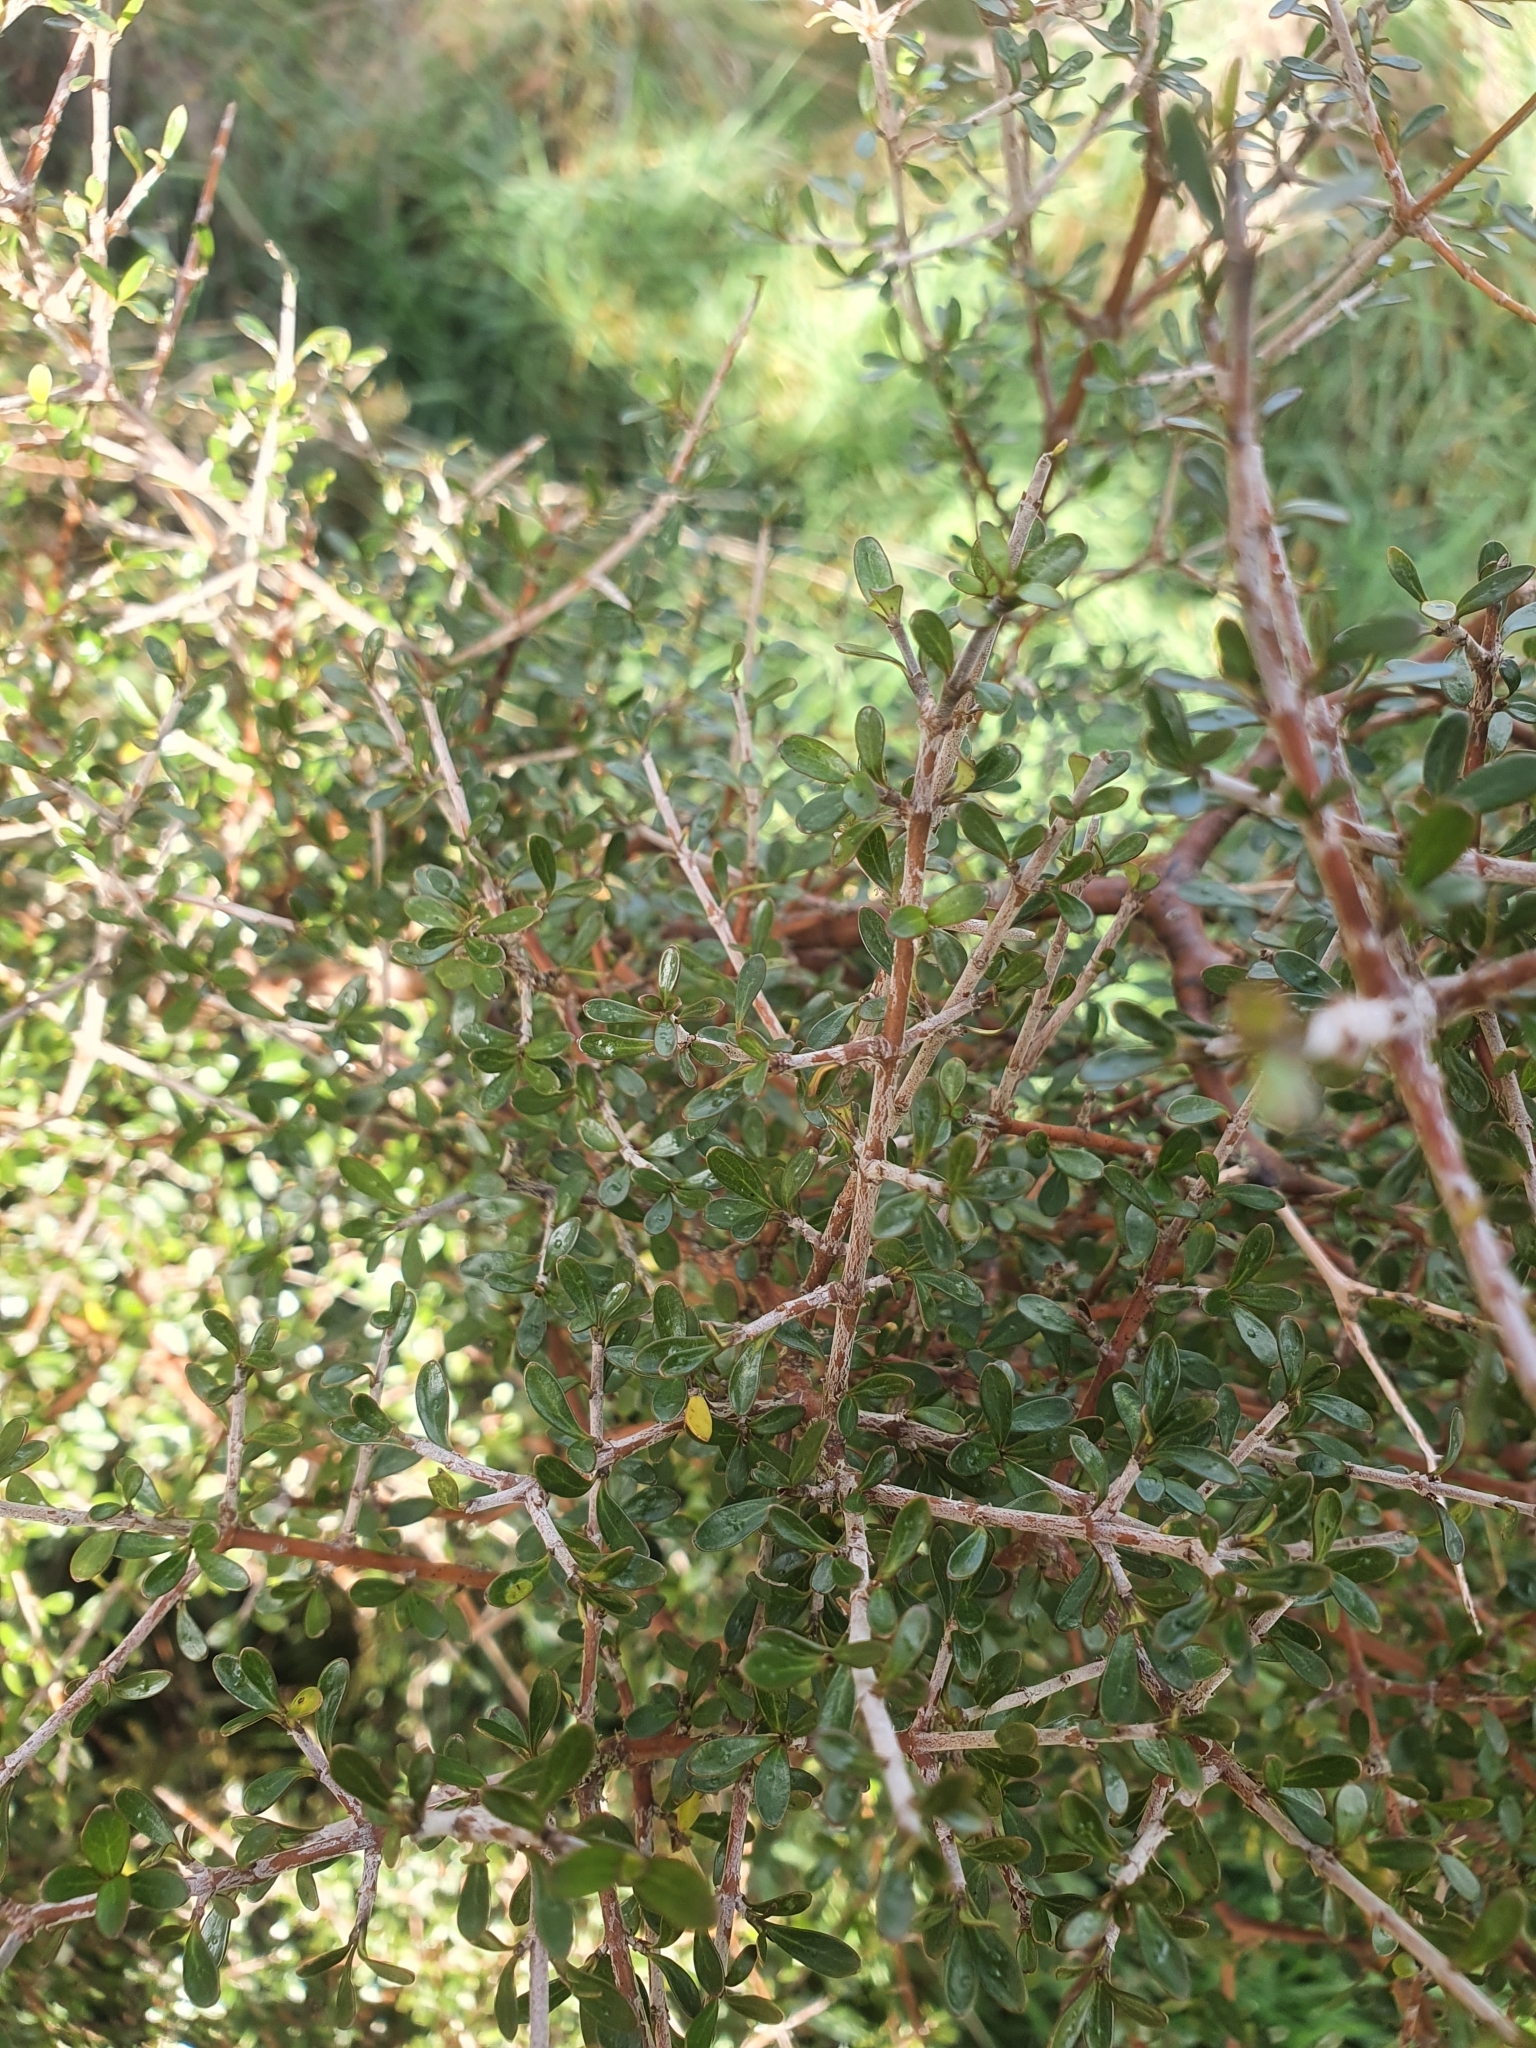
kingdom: Plantae
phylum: Tracheophyta
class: Magnoliopsida
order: Gentianales
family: Rubiaceae
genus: Coprosma
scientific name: Coprosma propinqua
